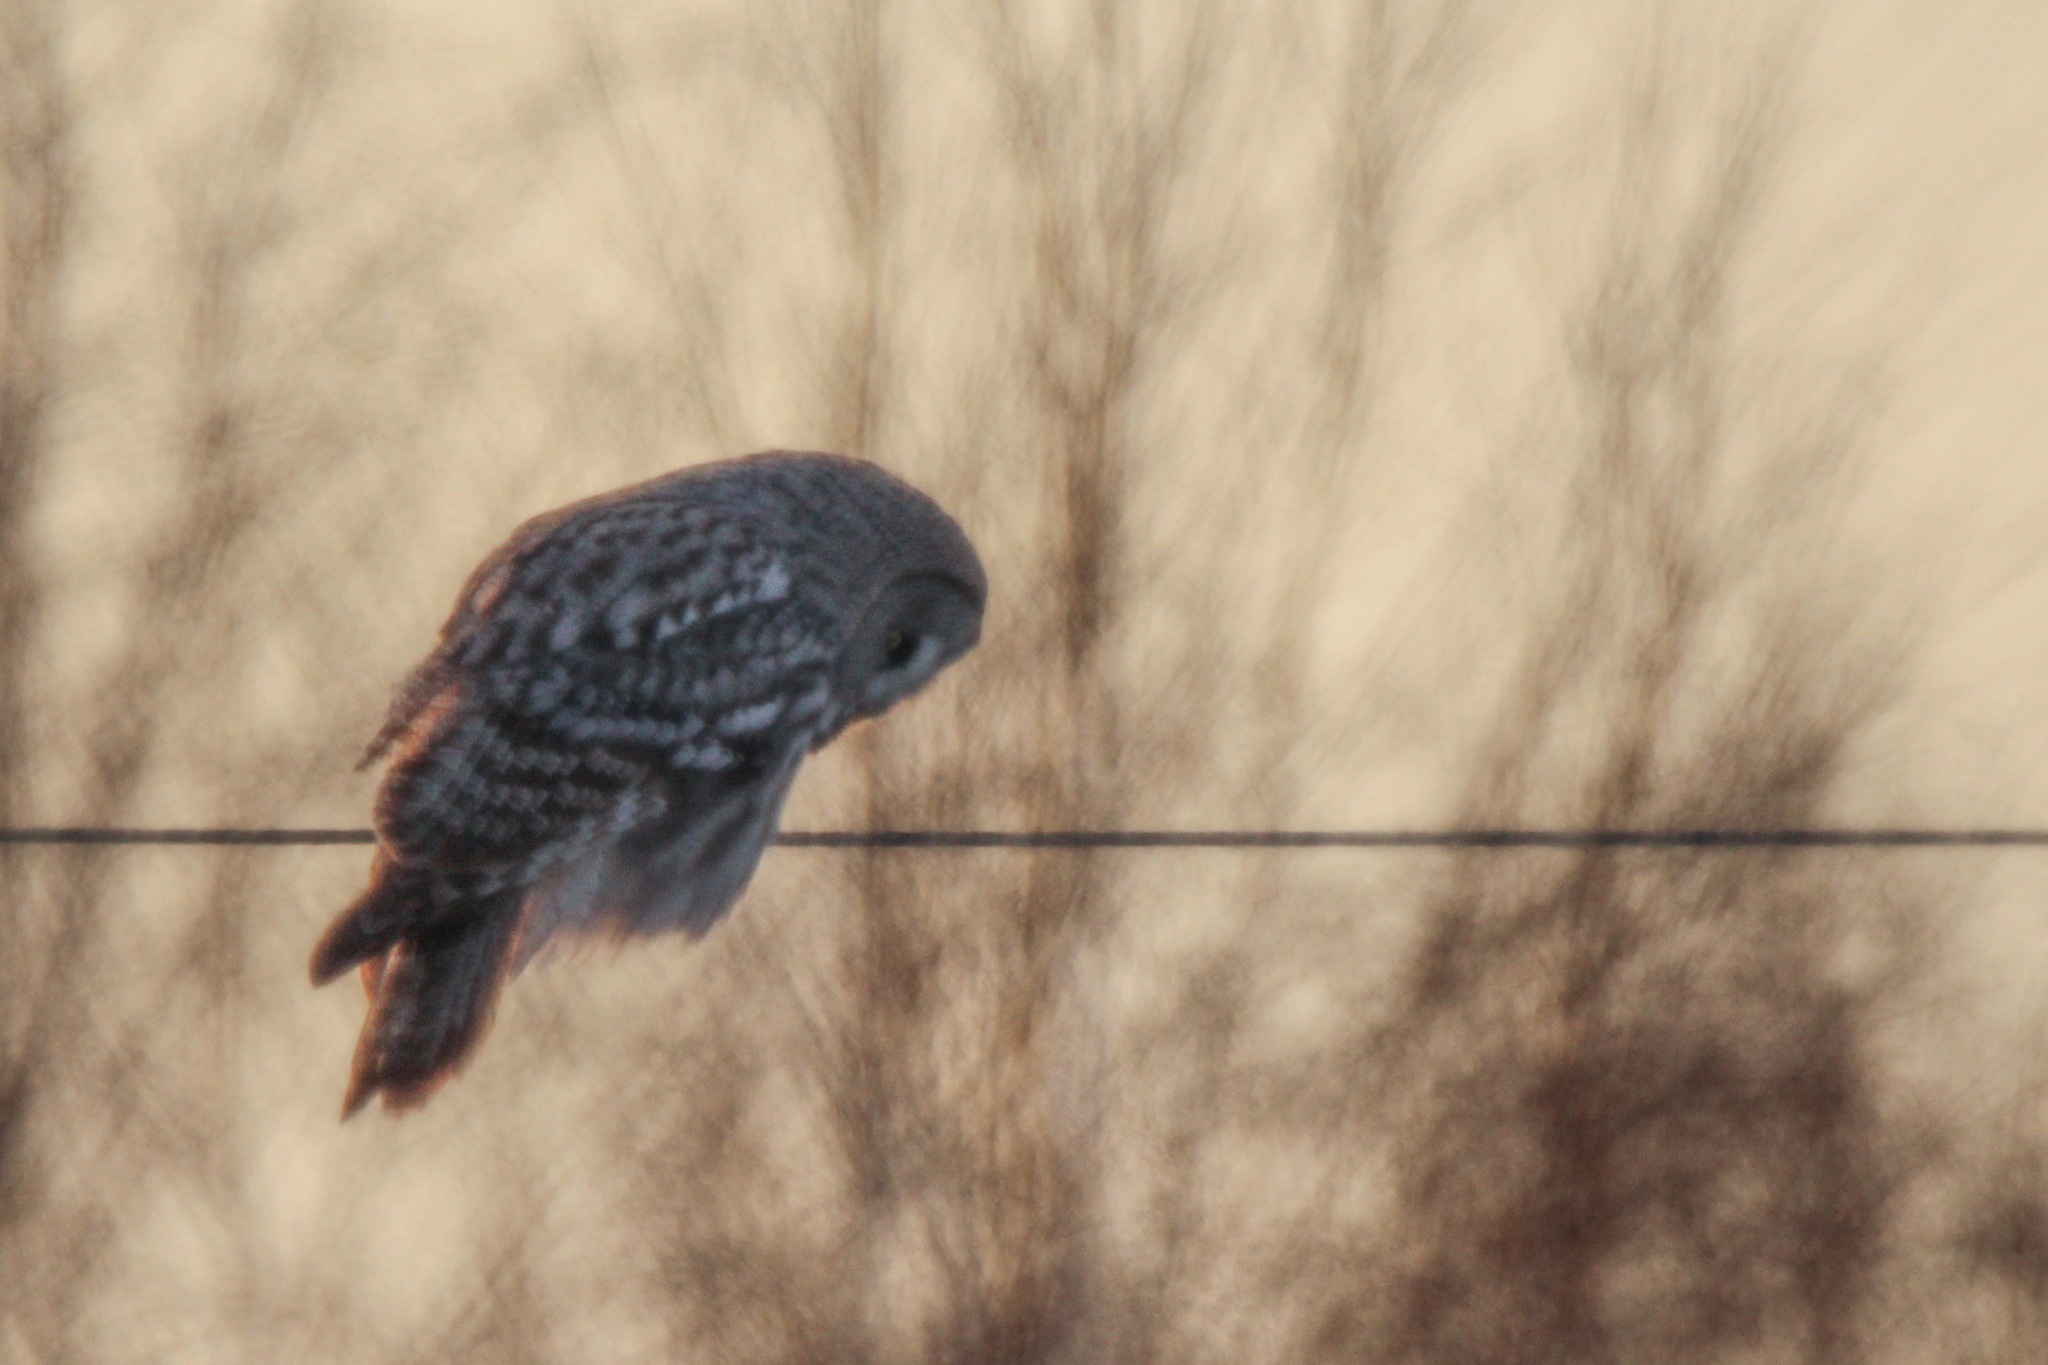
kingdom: Animalia
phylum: Chordata
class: Aves
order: Strigiformes
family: Strigidae
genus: Strix
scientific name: Strix nebulosa
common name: Great grey owl
